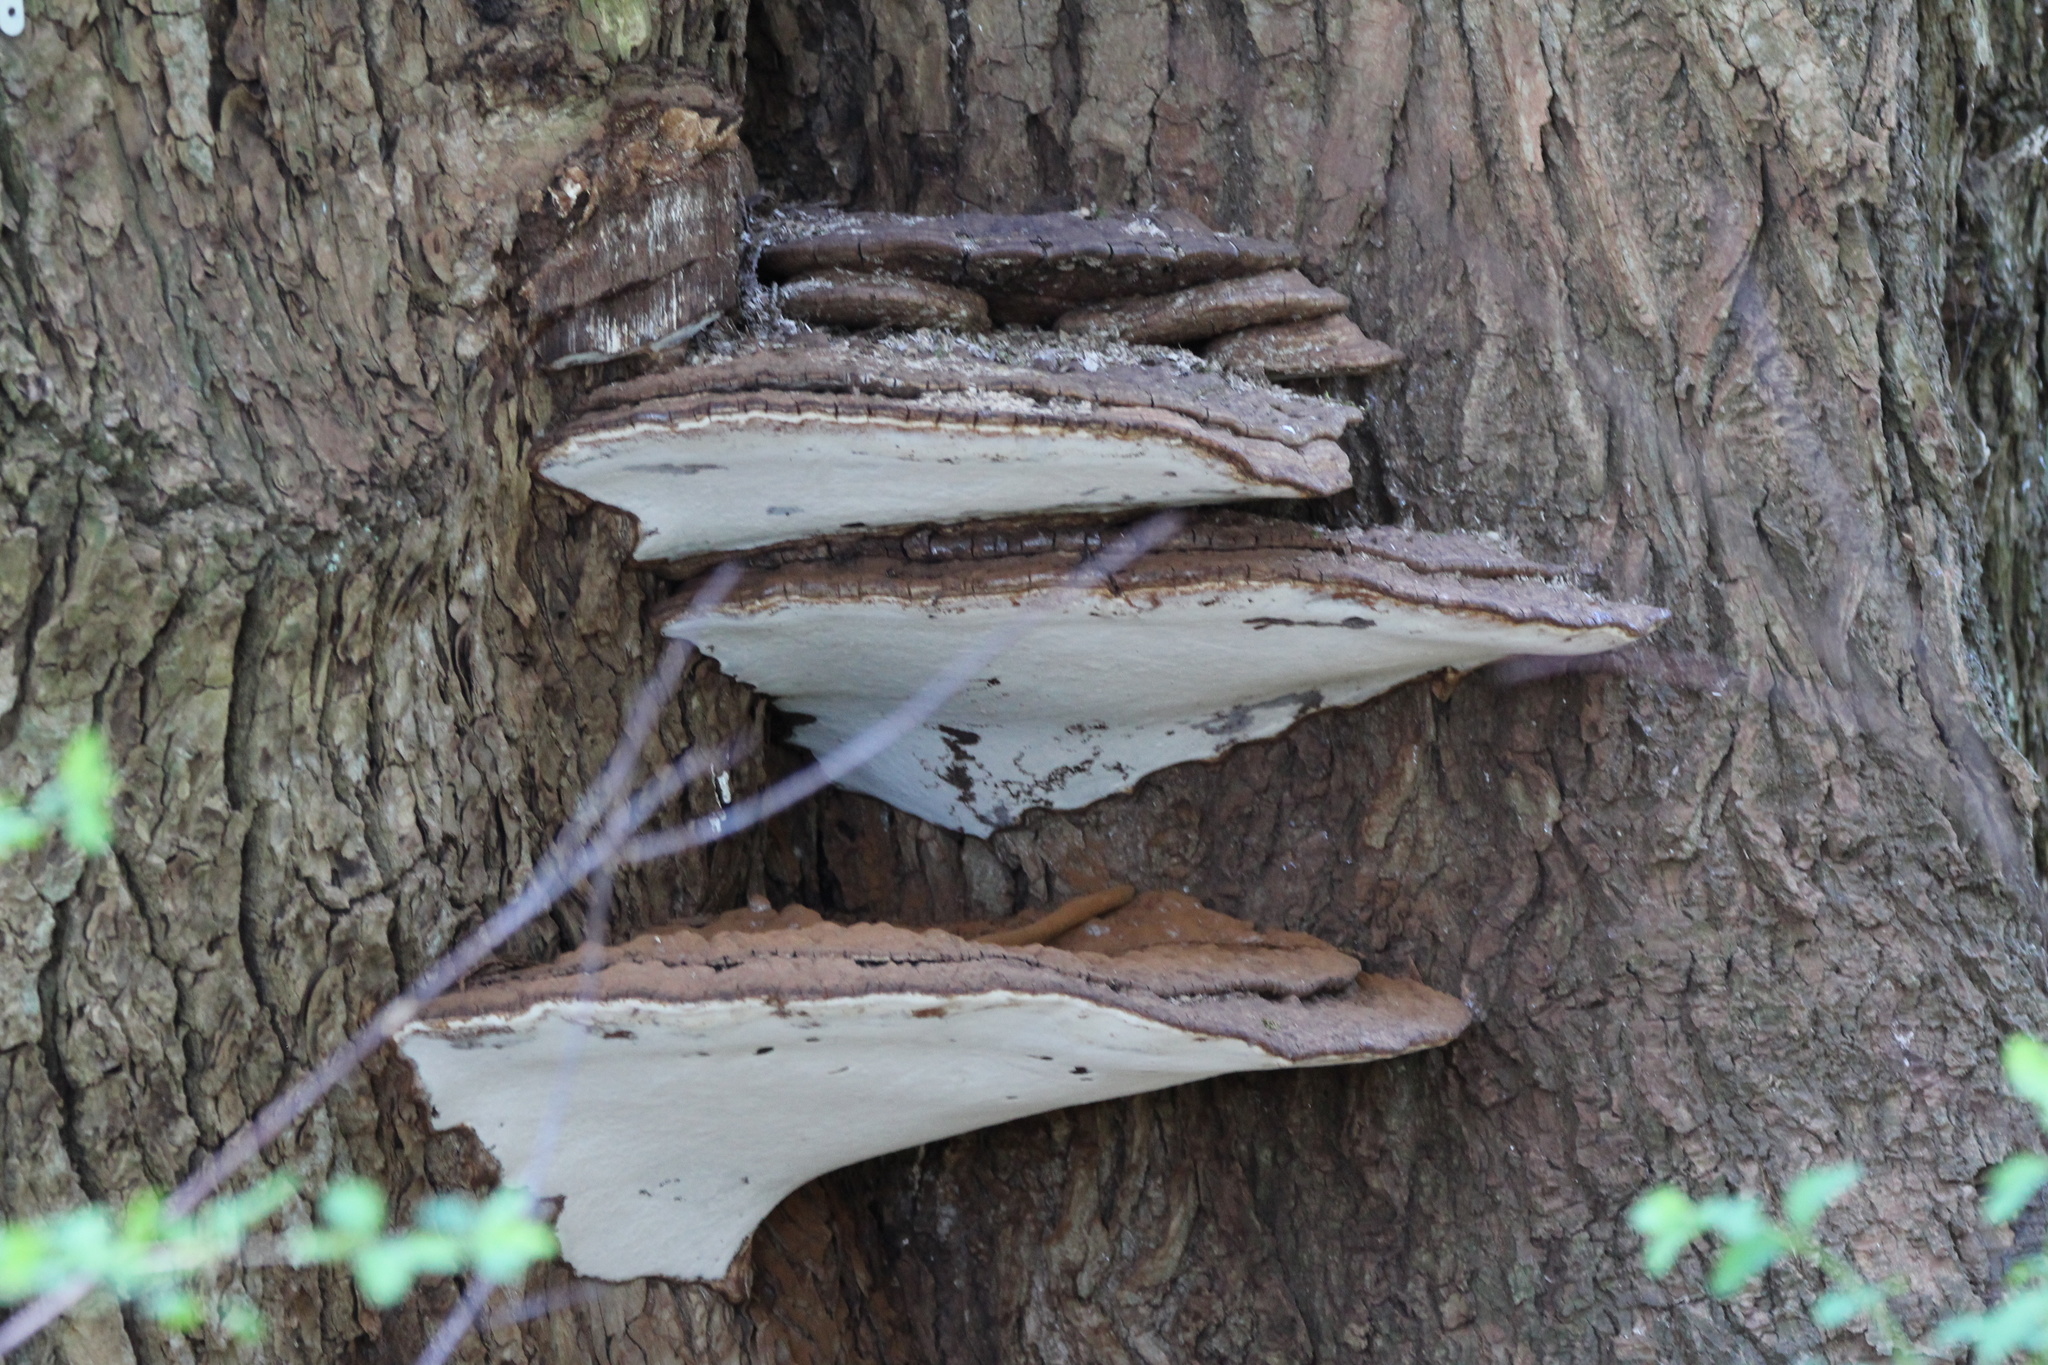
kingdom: Fungi
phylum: Basidiomycota
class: Agaricomycetes
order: Polyporales
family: Polyporaceae
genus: Ganoderma
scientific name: Ganoderma applanatum
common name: Artist's bracket
